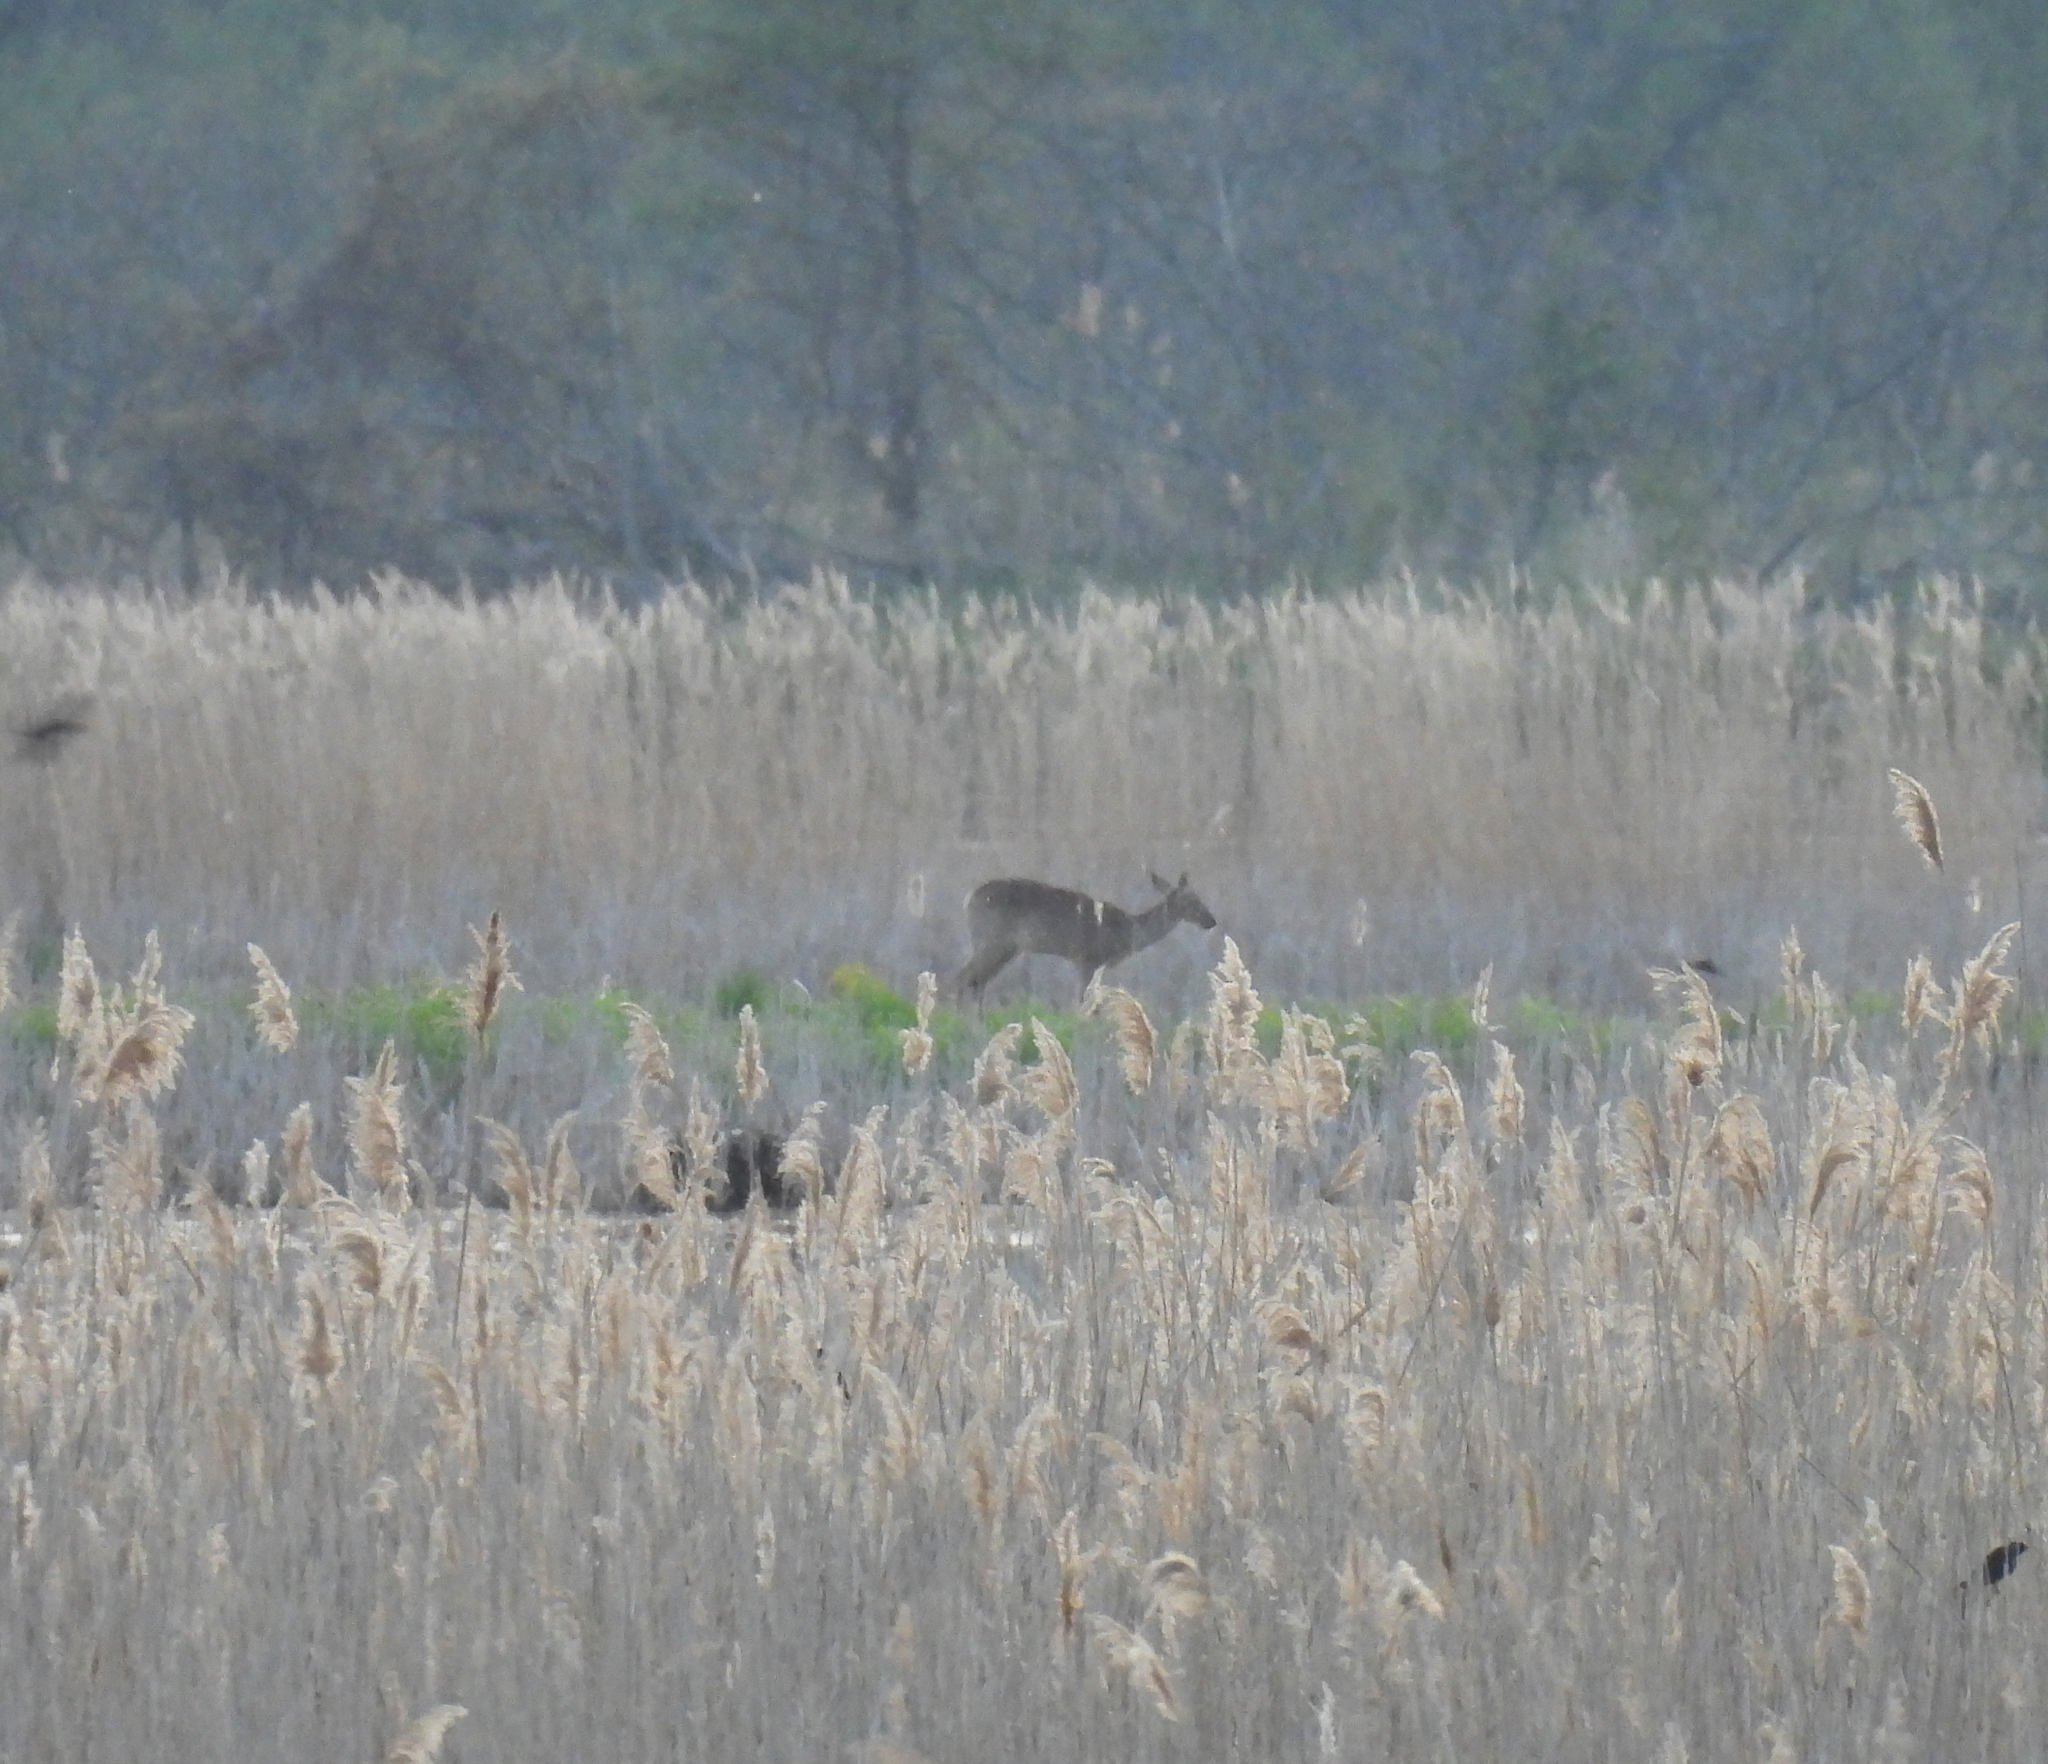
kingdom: Animalia
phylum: Chordata
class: Mammalia
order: Artiodactyla
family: Cervidae
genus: Odocoileus
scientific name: Odocoileus virginianus
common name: White-tailed deer
